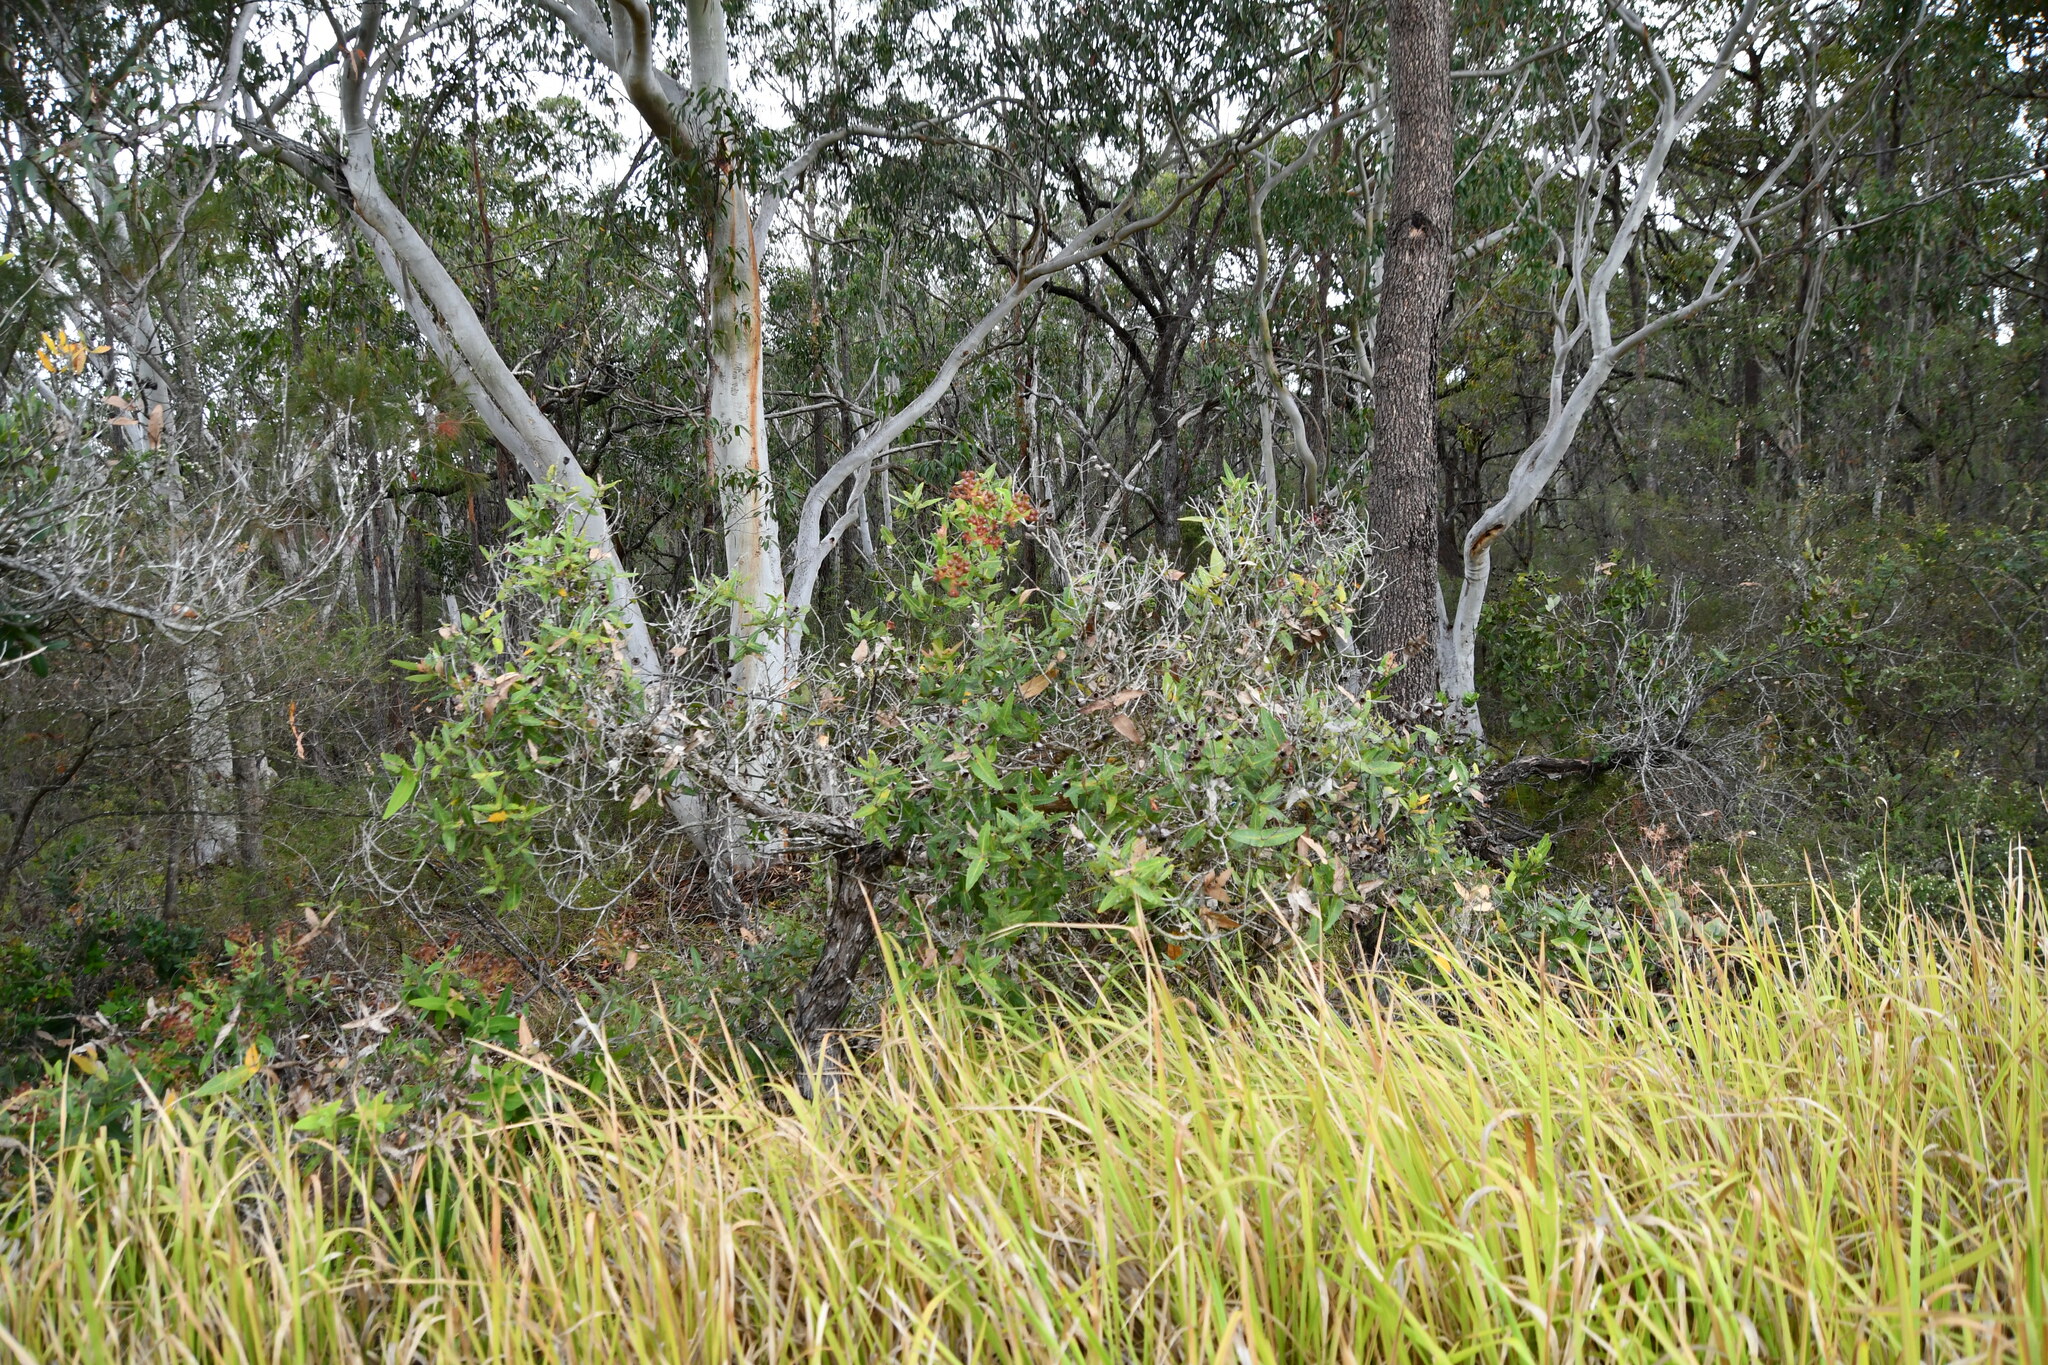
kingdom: Plantae
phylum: Tracheophyta
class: Magnoliopsida
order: Myrtales
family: Myrtaceae
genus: Angophora
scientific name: Angophora hispida
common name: Dwarf-apple
